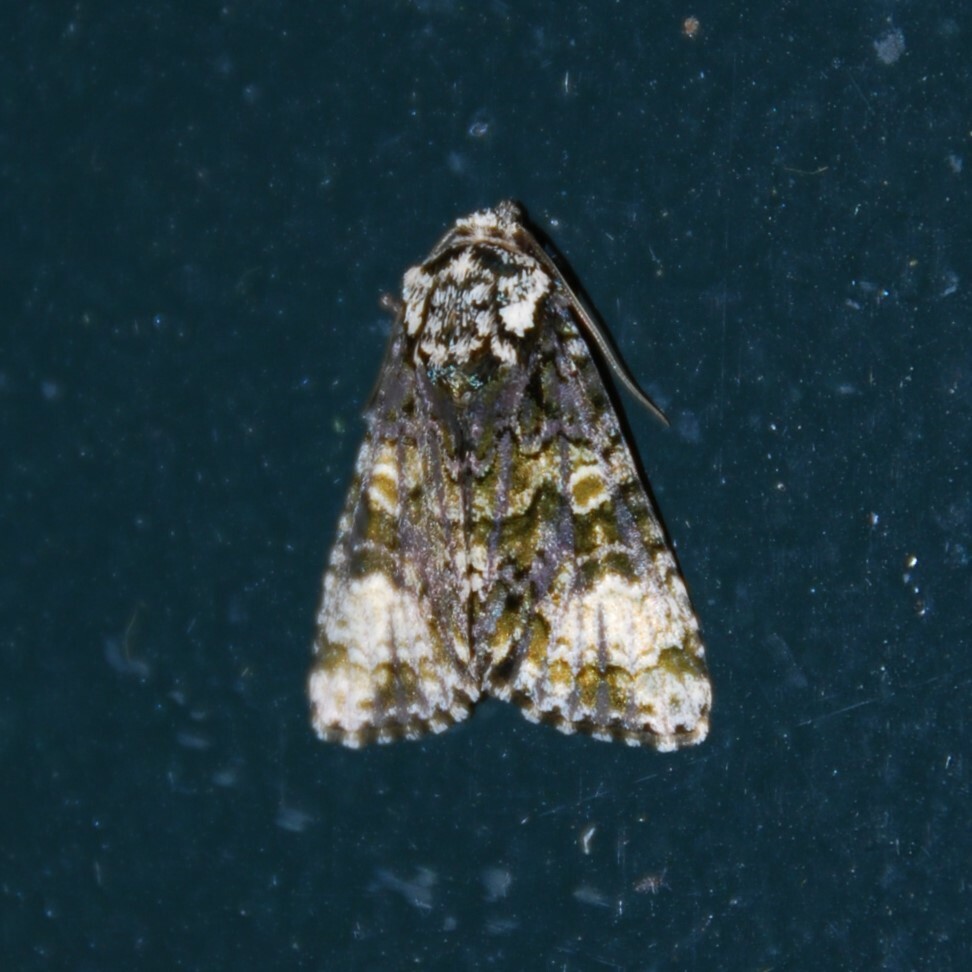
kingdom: Animalia
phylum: Arthropoda
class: Insecta
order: Lepidoptera
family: Noctuidae
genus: Craniophora
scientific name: Craniophora ligustri
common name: Coronet
